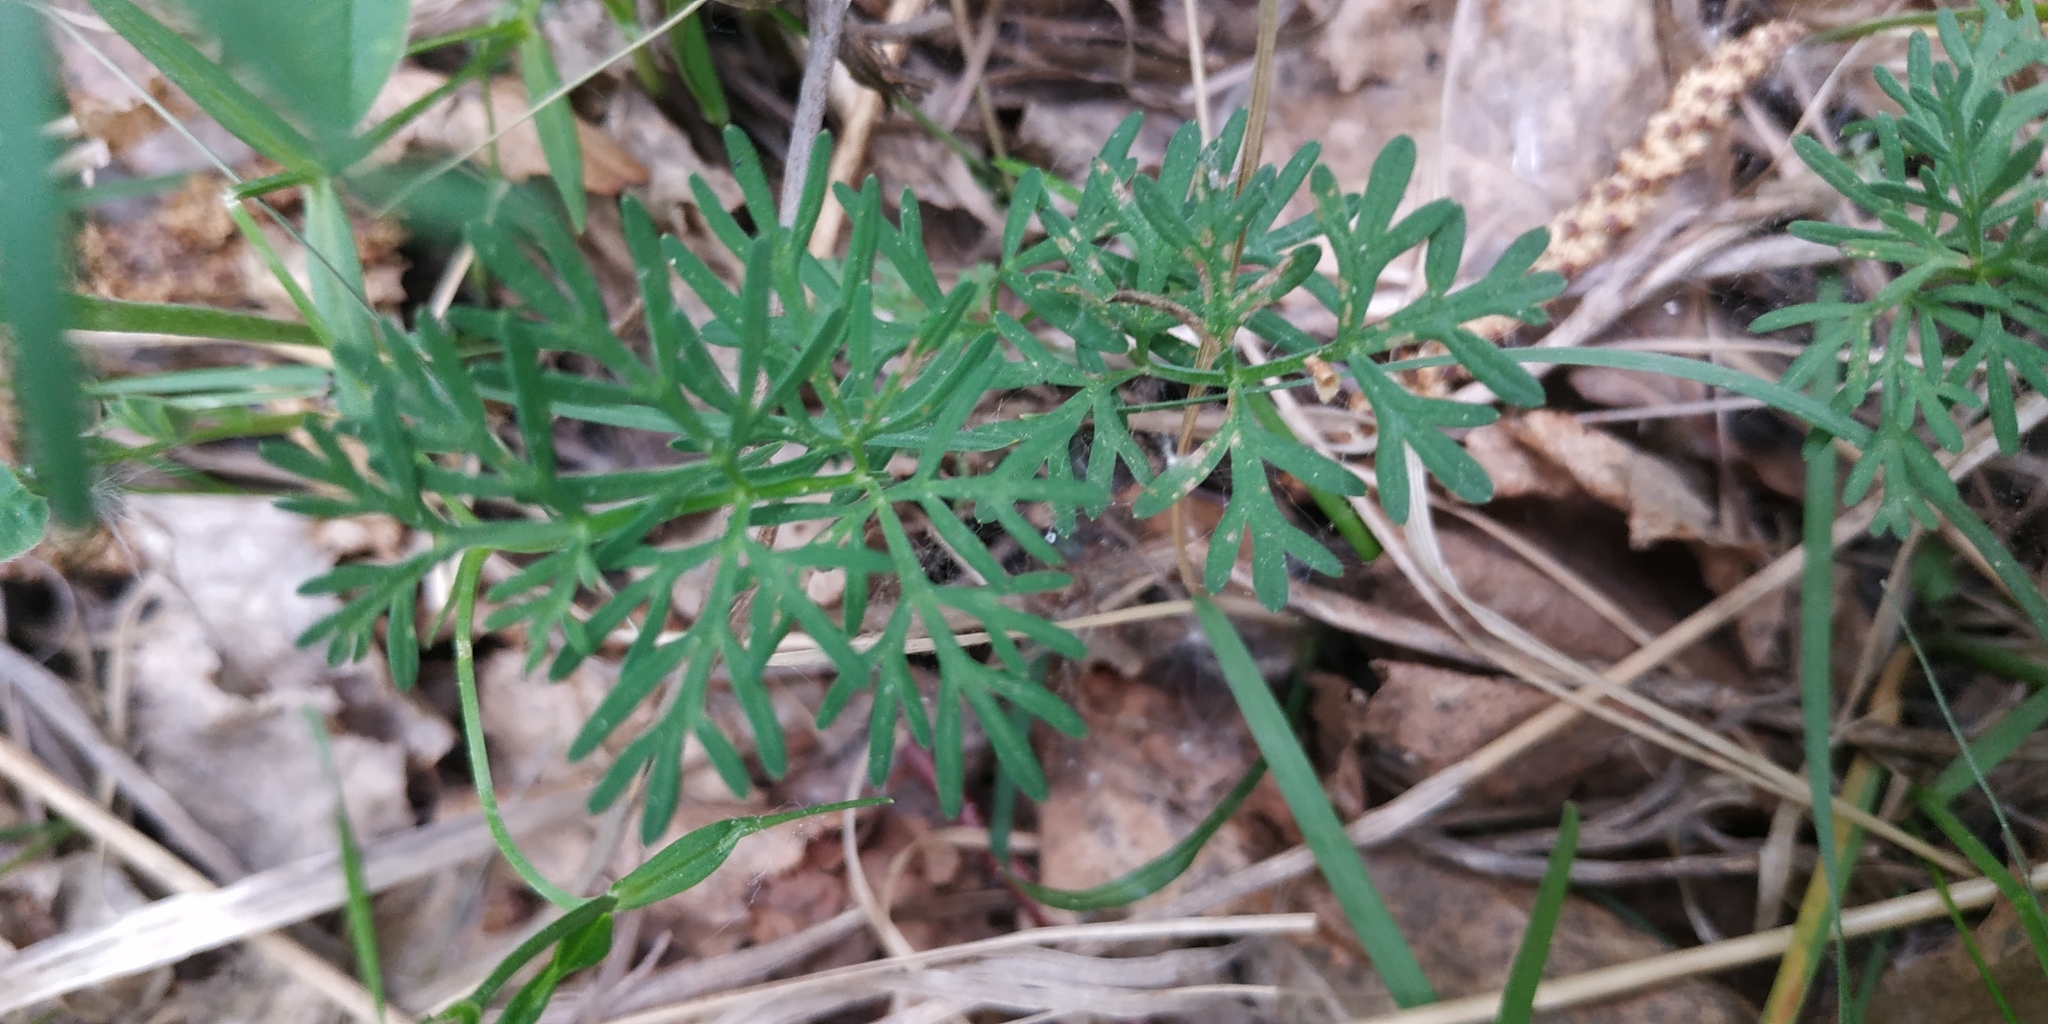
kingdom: Plantae
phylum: Tracheophyta
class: Magnoliopsida
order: Apiales
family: Apiaceae
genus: Kadenia
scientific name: Kadenia dubia
